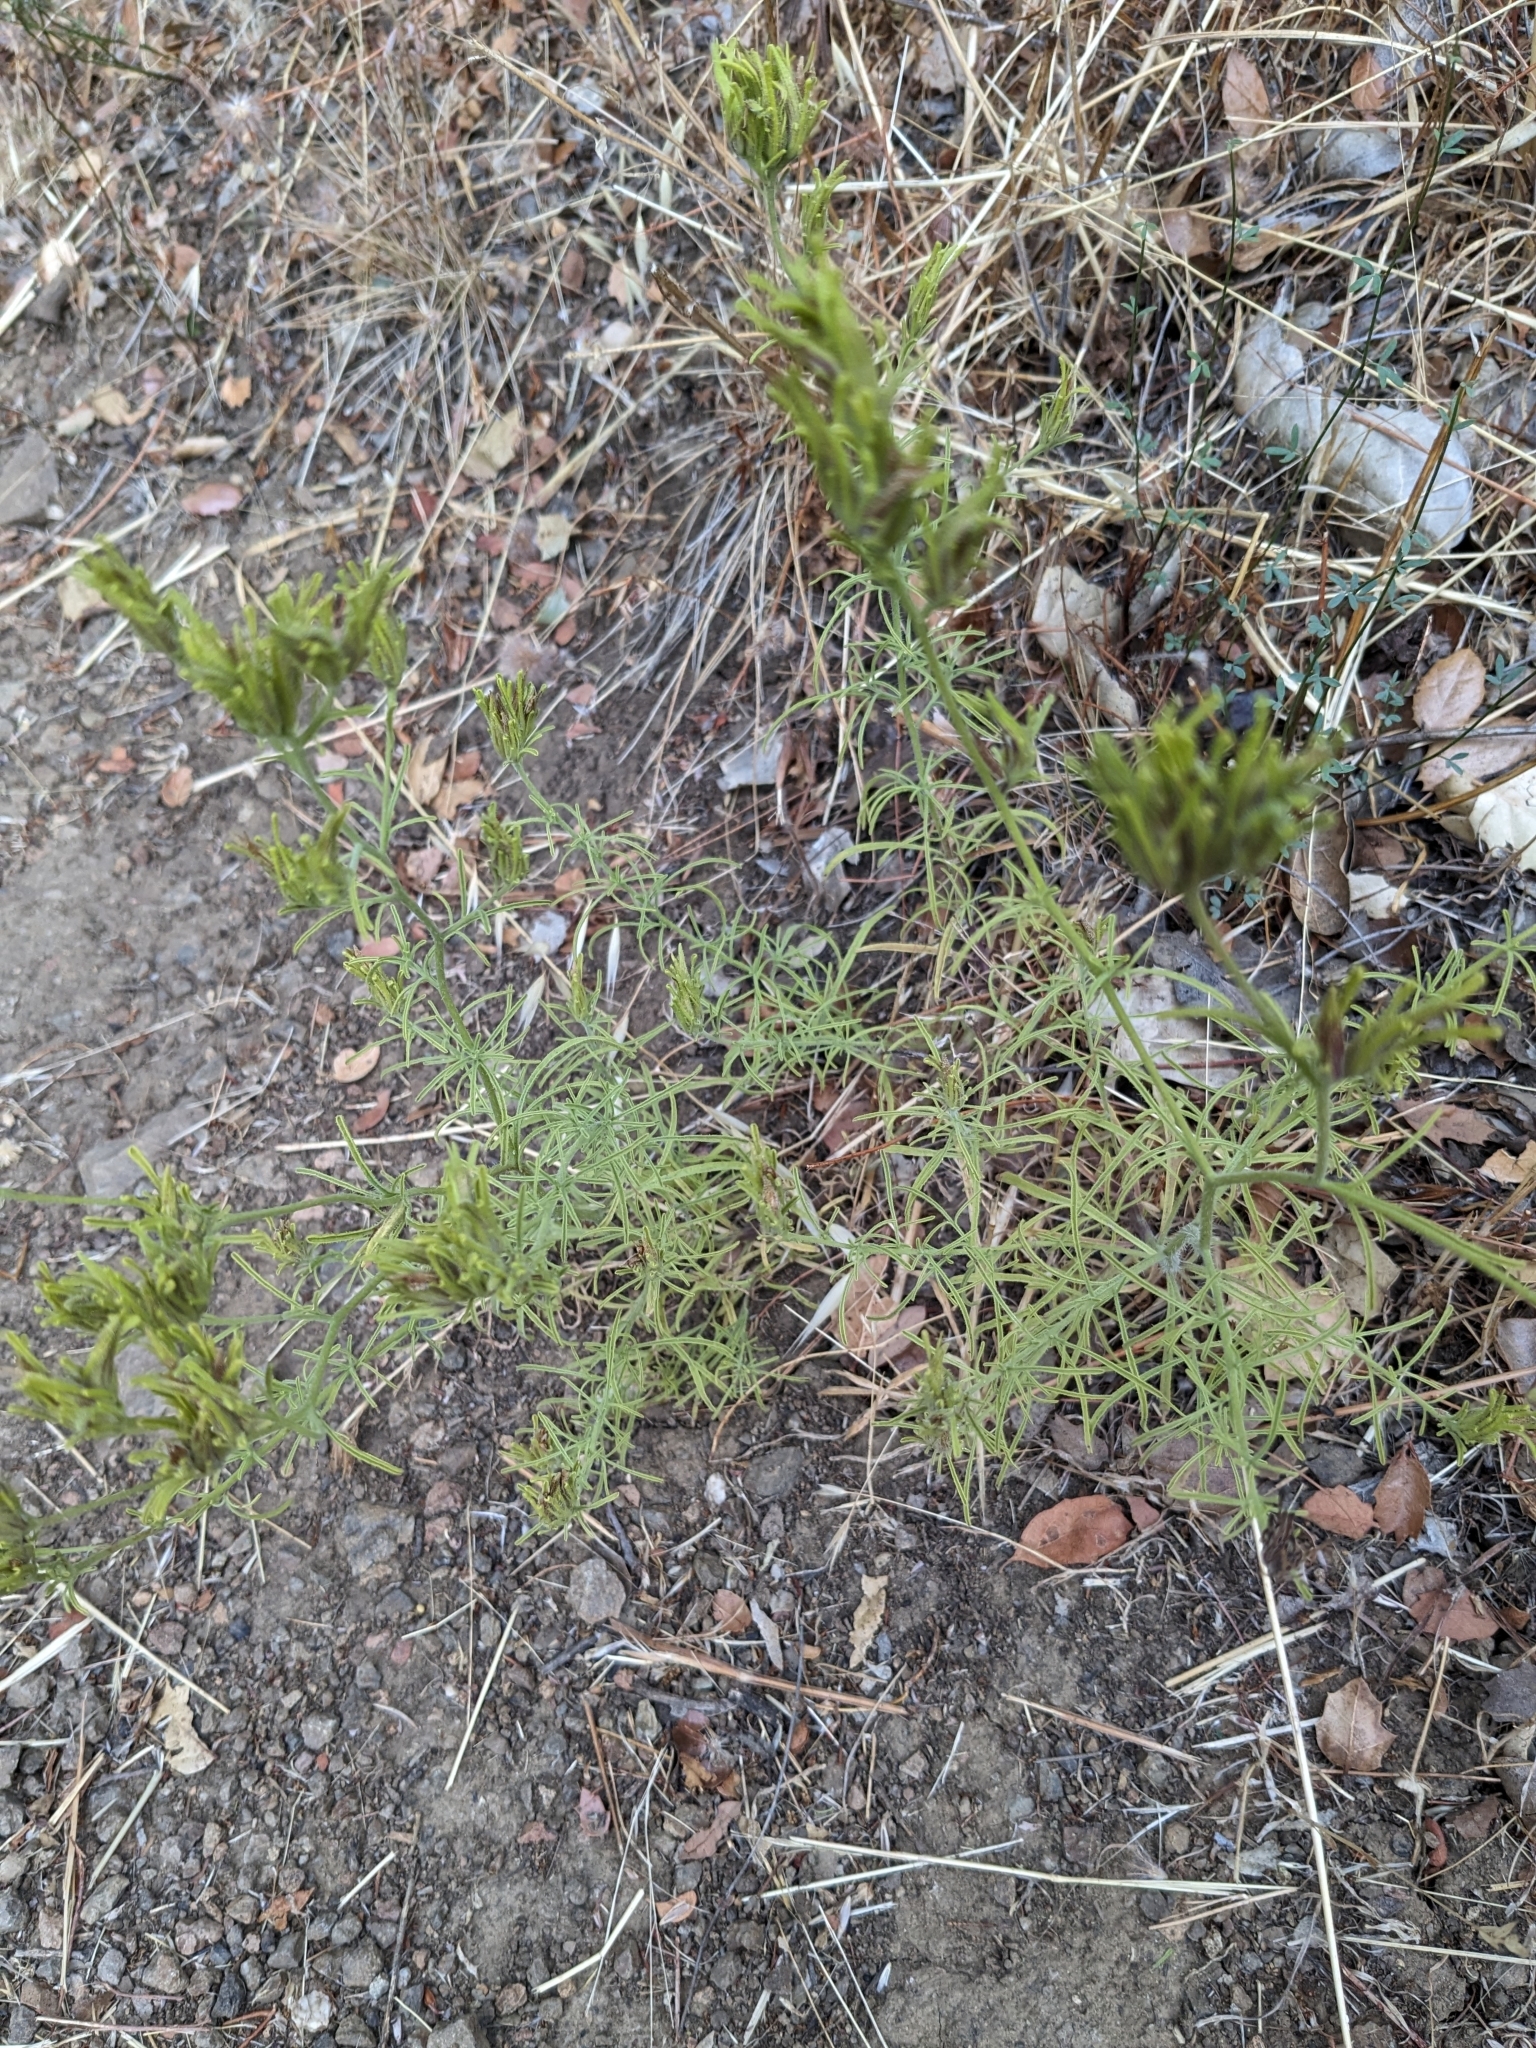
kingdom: Plantae
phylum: Tracheophyta
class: Magnoliopsida
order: Lamiales
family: Orobanchaceae
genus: Cordylanthus
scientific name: Cordylanthus rigidus
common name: Stiff-branch bird's-beak
